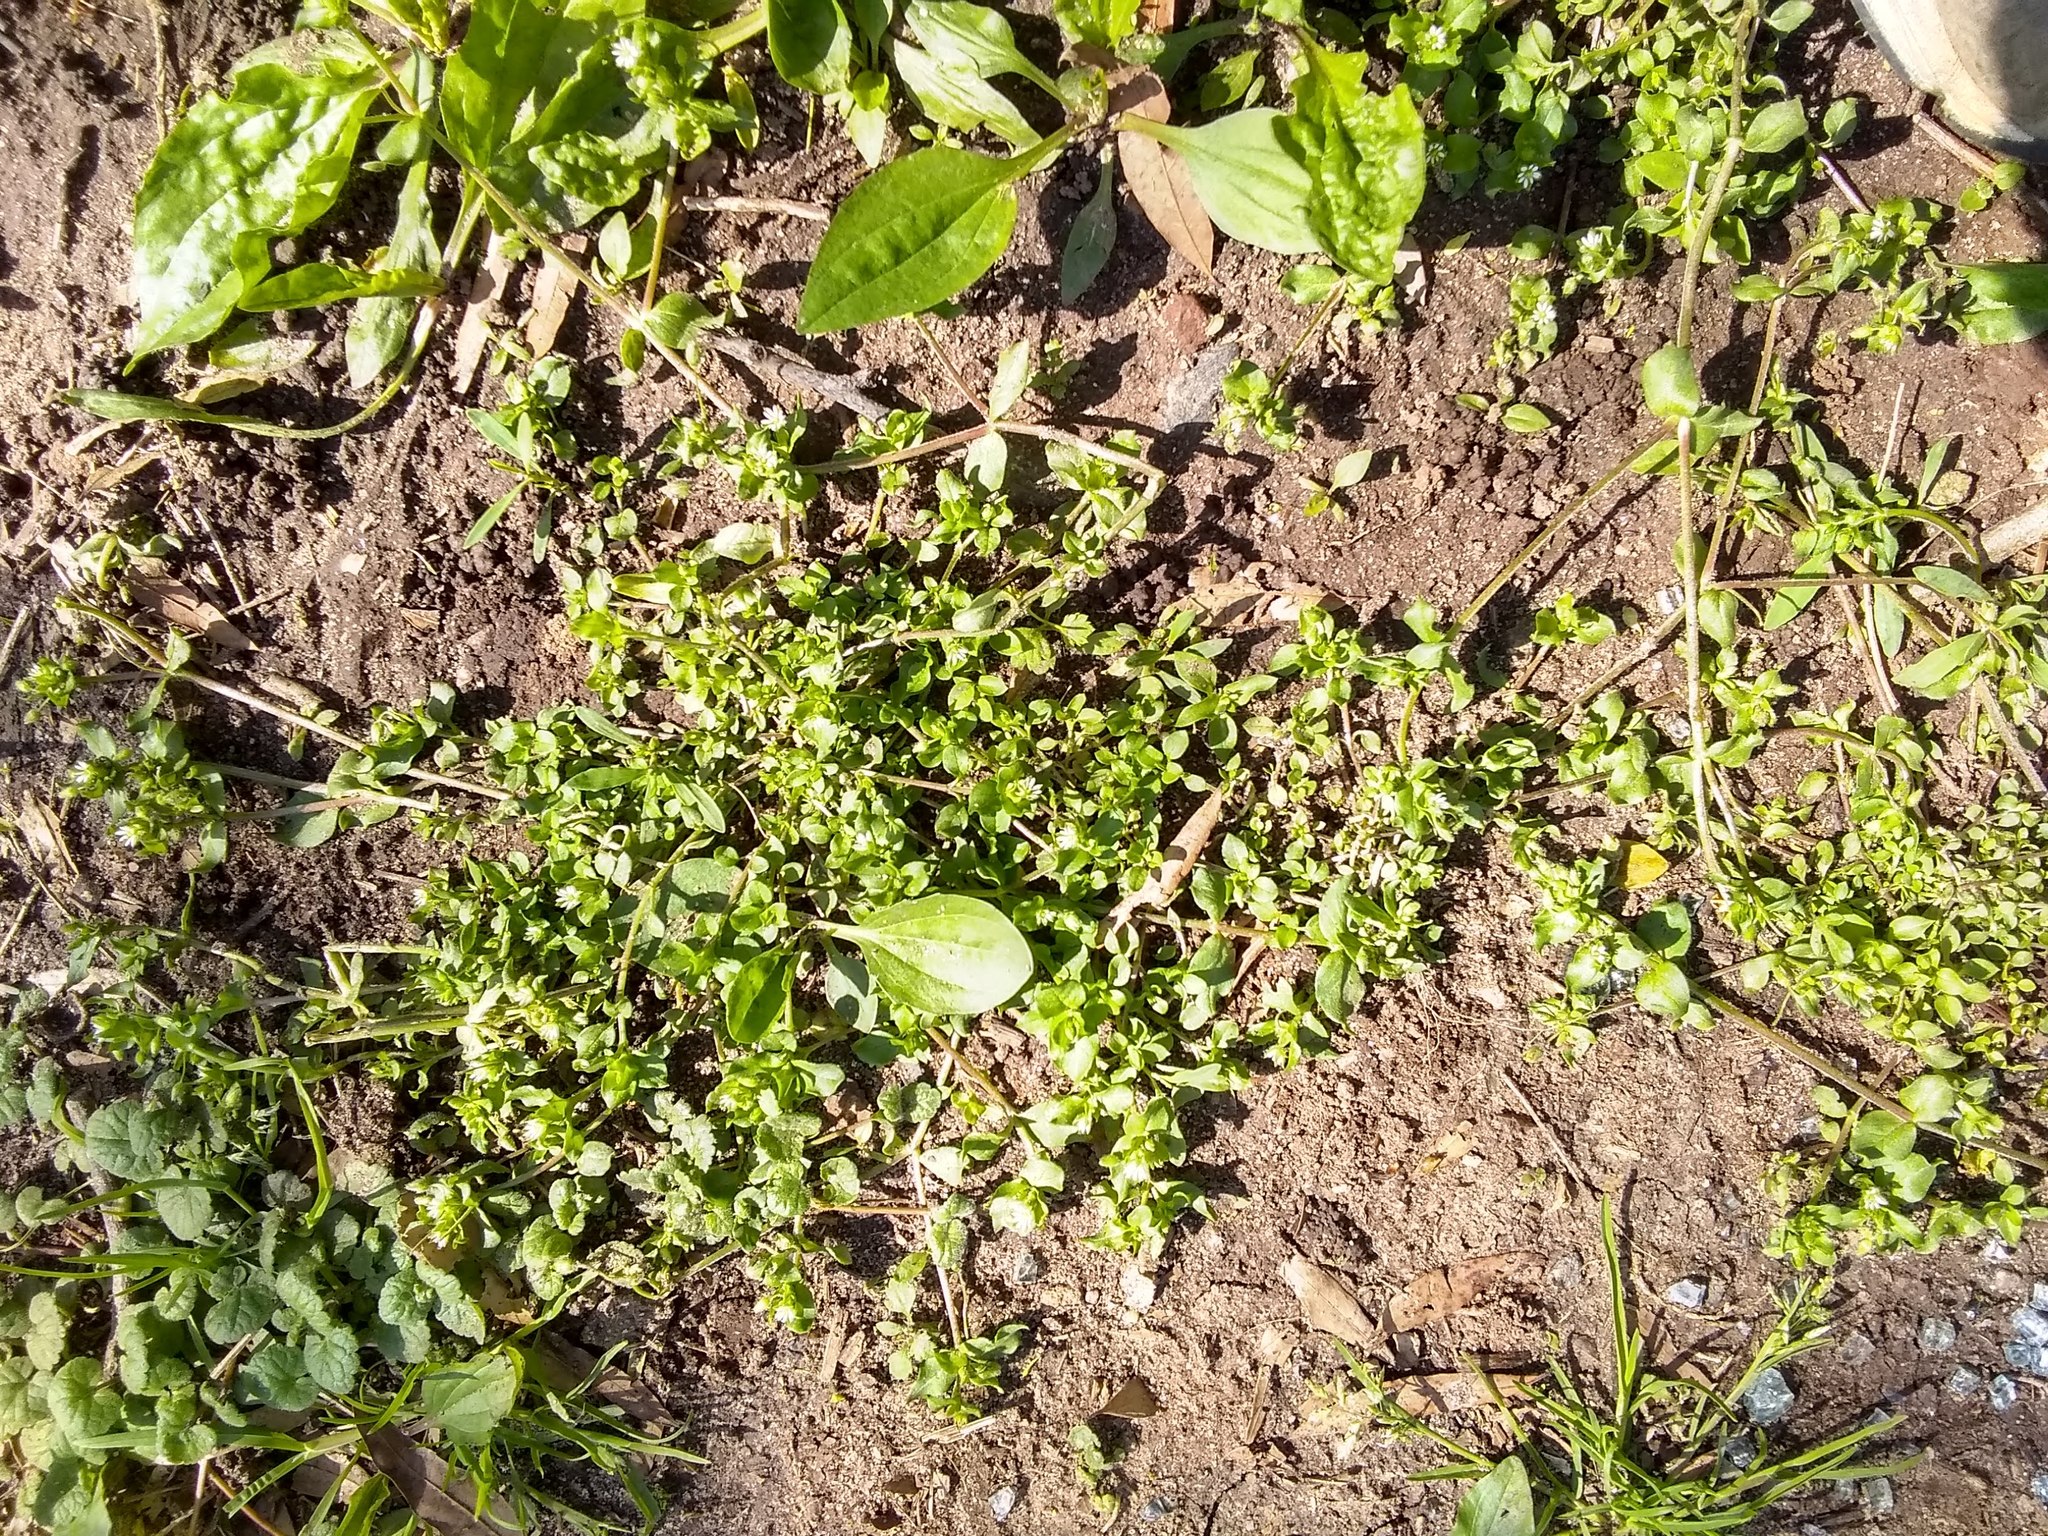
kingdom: Plantae
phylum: Tracheophyta
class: Magnoliopsida
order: Caryophyllales
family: Caryophyllaceae
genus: Stellaria
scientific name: Stellaria media
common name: Common chickweed
